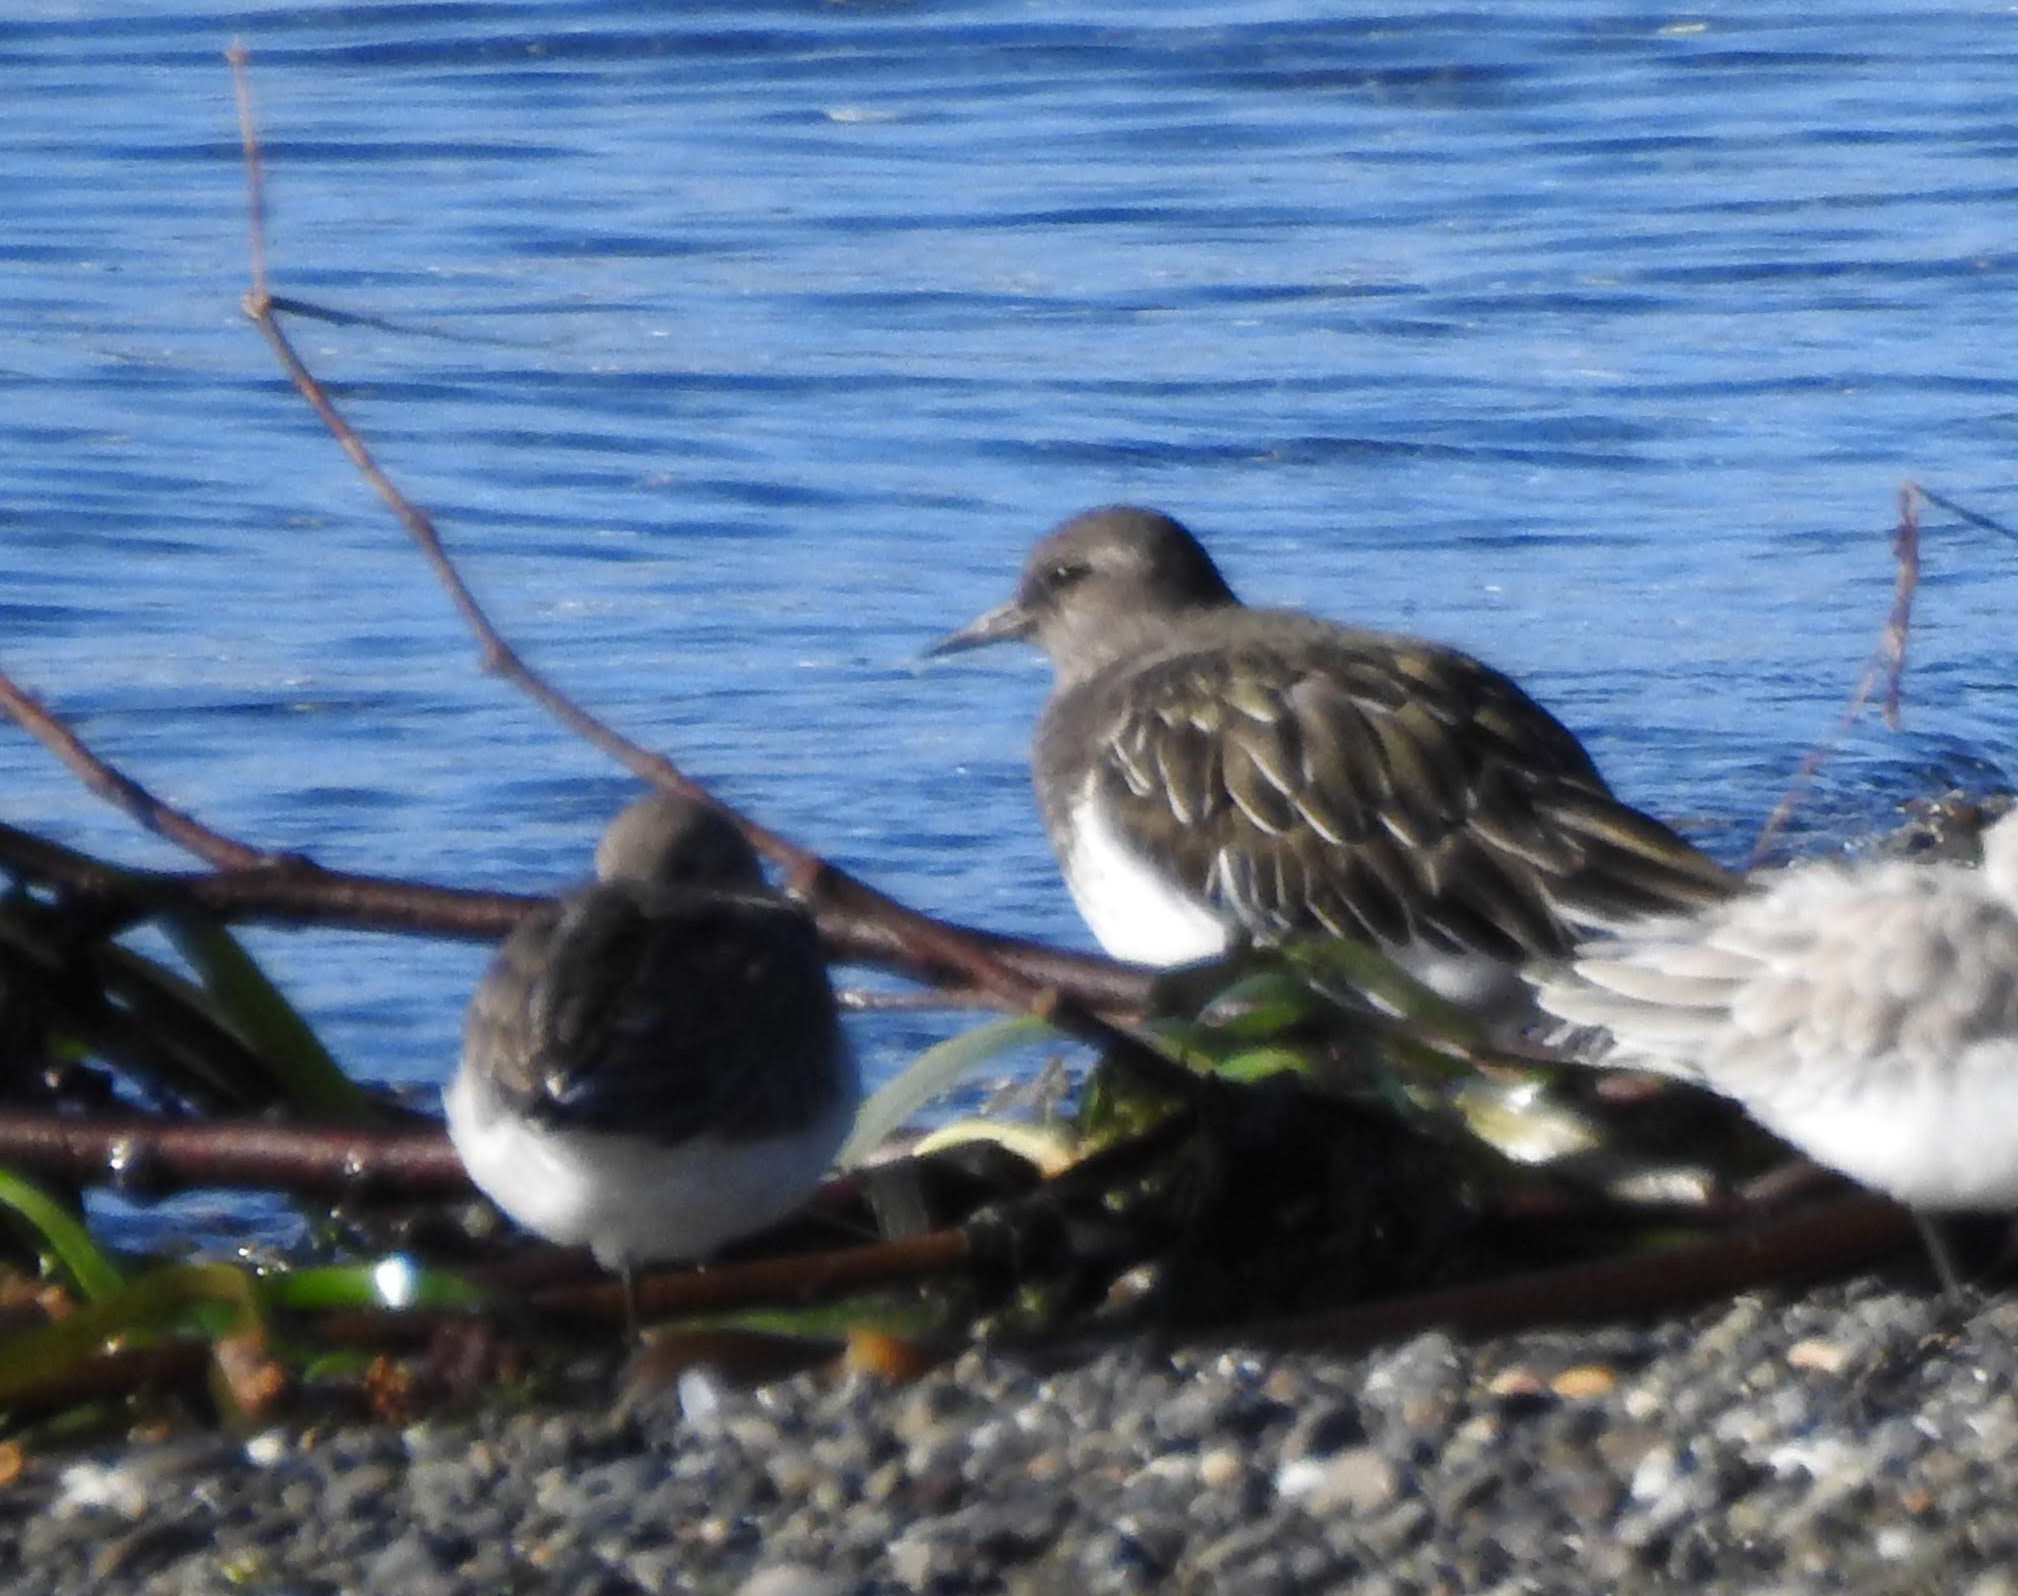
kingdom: Animalia
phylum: Chordata
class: Aves
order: Charadriiformes
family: Scolopacidae
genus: Arenaria
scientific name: Arenaria melanocephala
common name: Black turnstone
